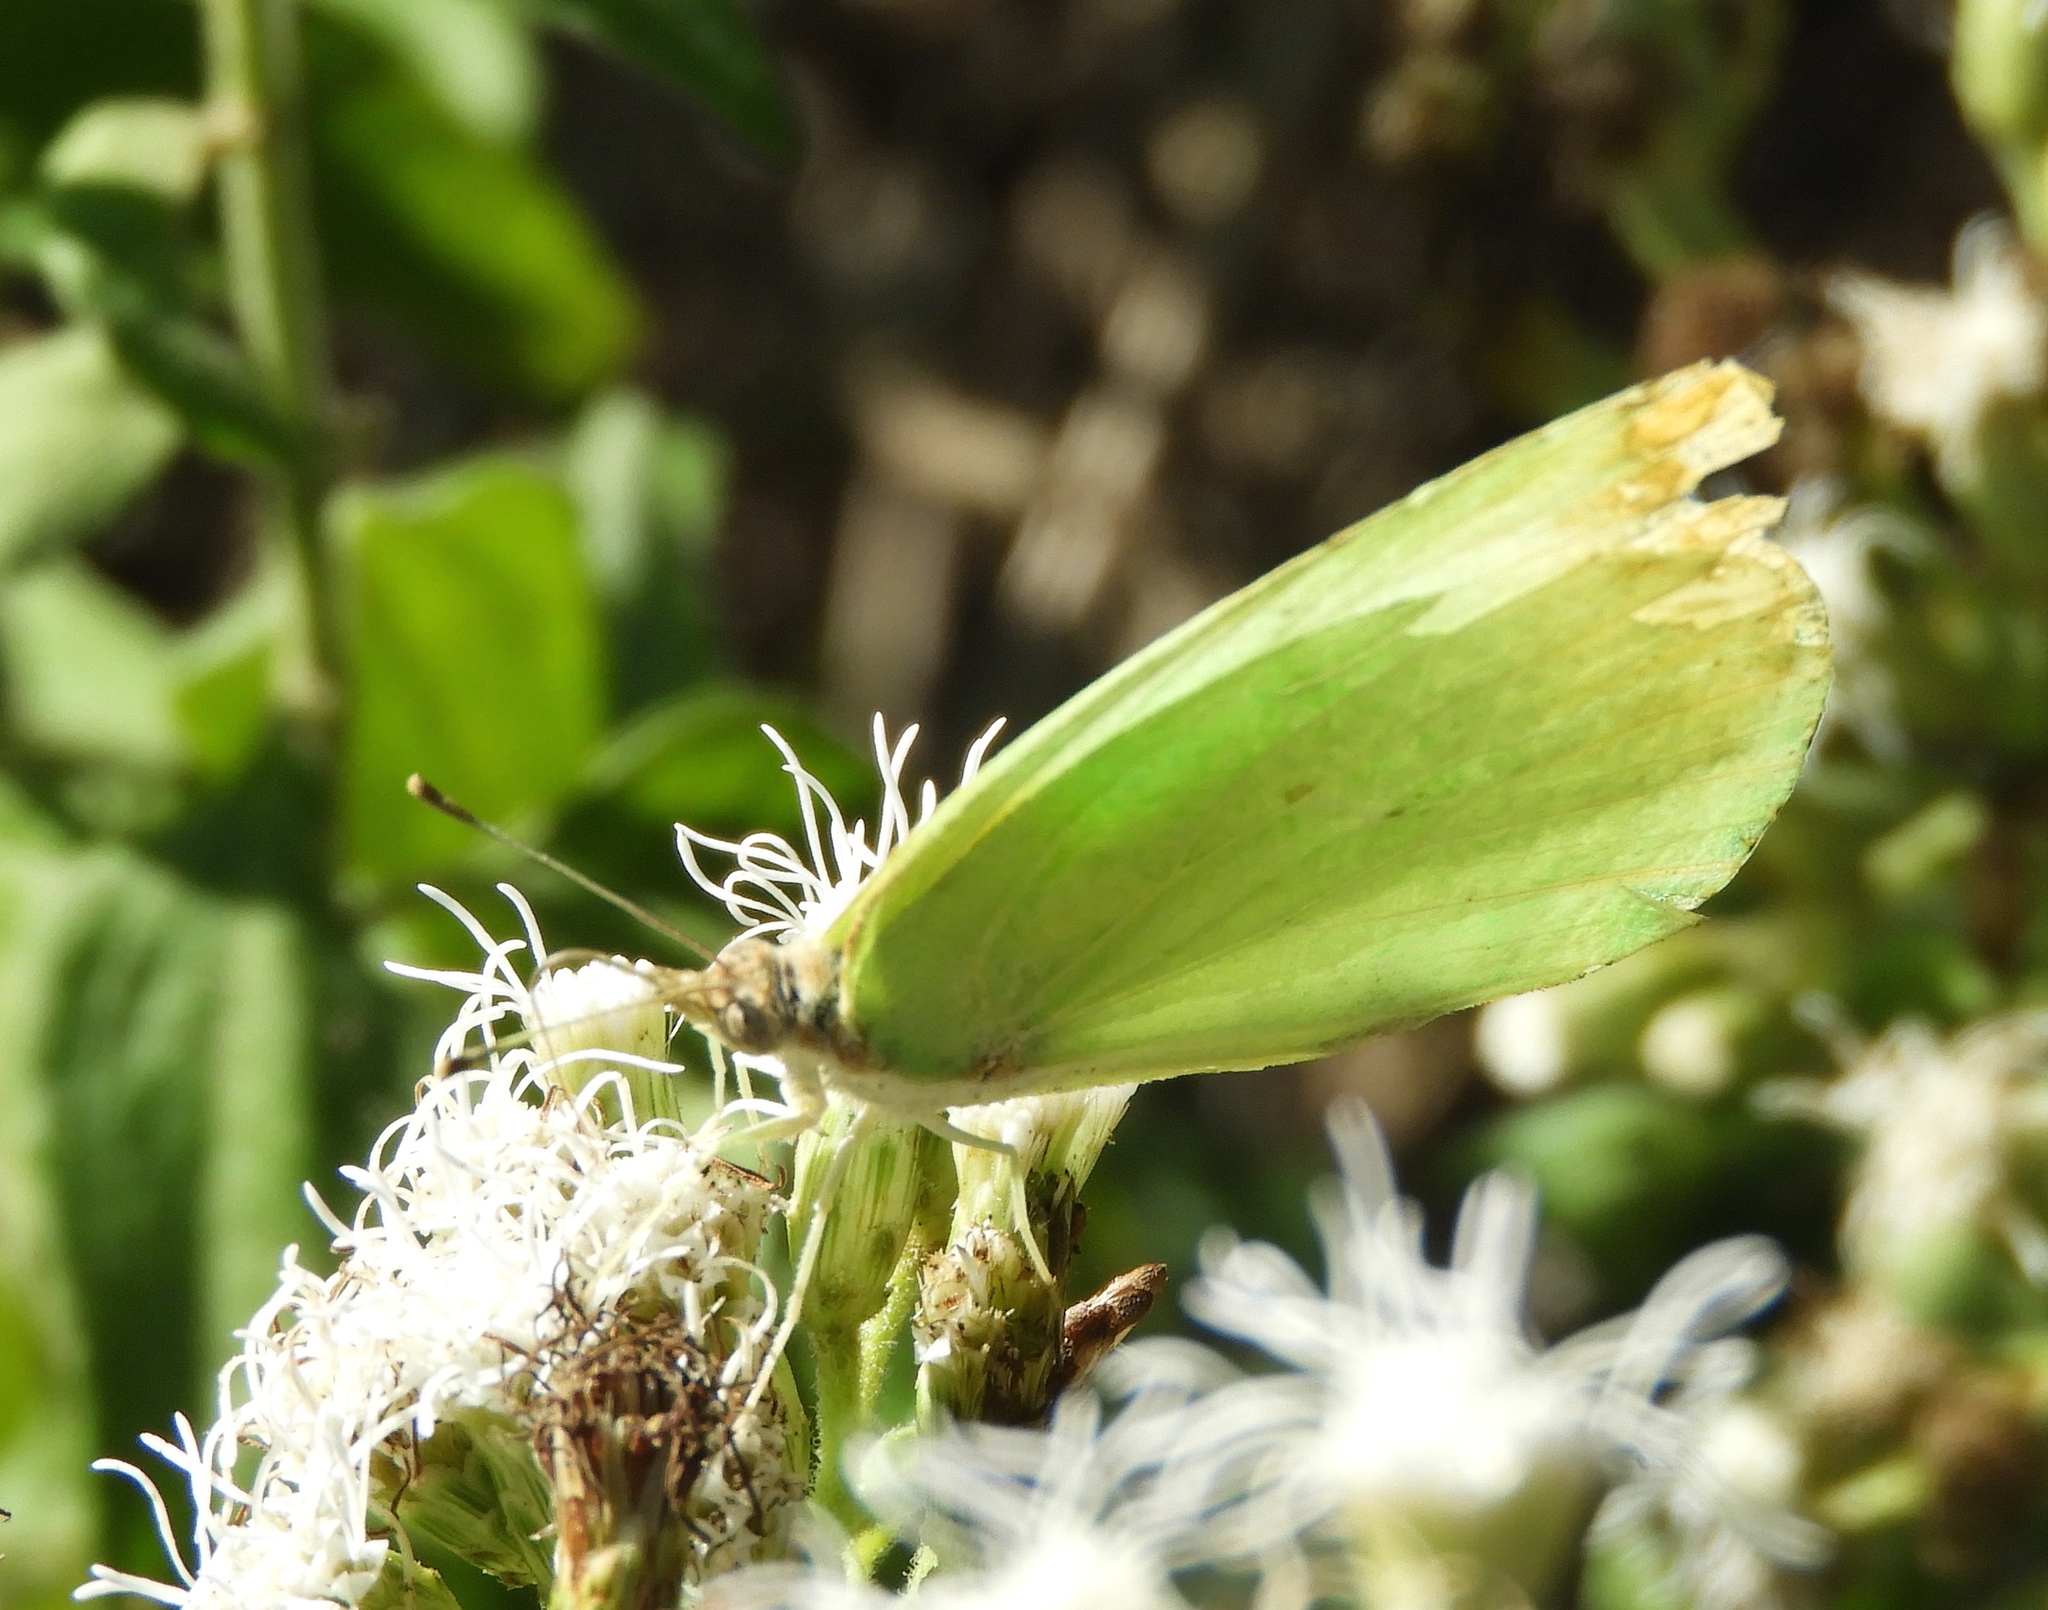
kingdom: Animalia
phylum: Arthropoda
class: Insecta
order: Lepidoptera
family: Pieridae
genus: Kricogonia
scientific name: Kricogonia lyside
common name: Guayacan sulphur,
